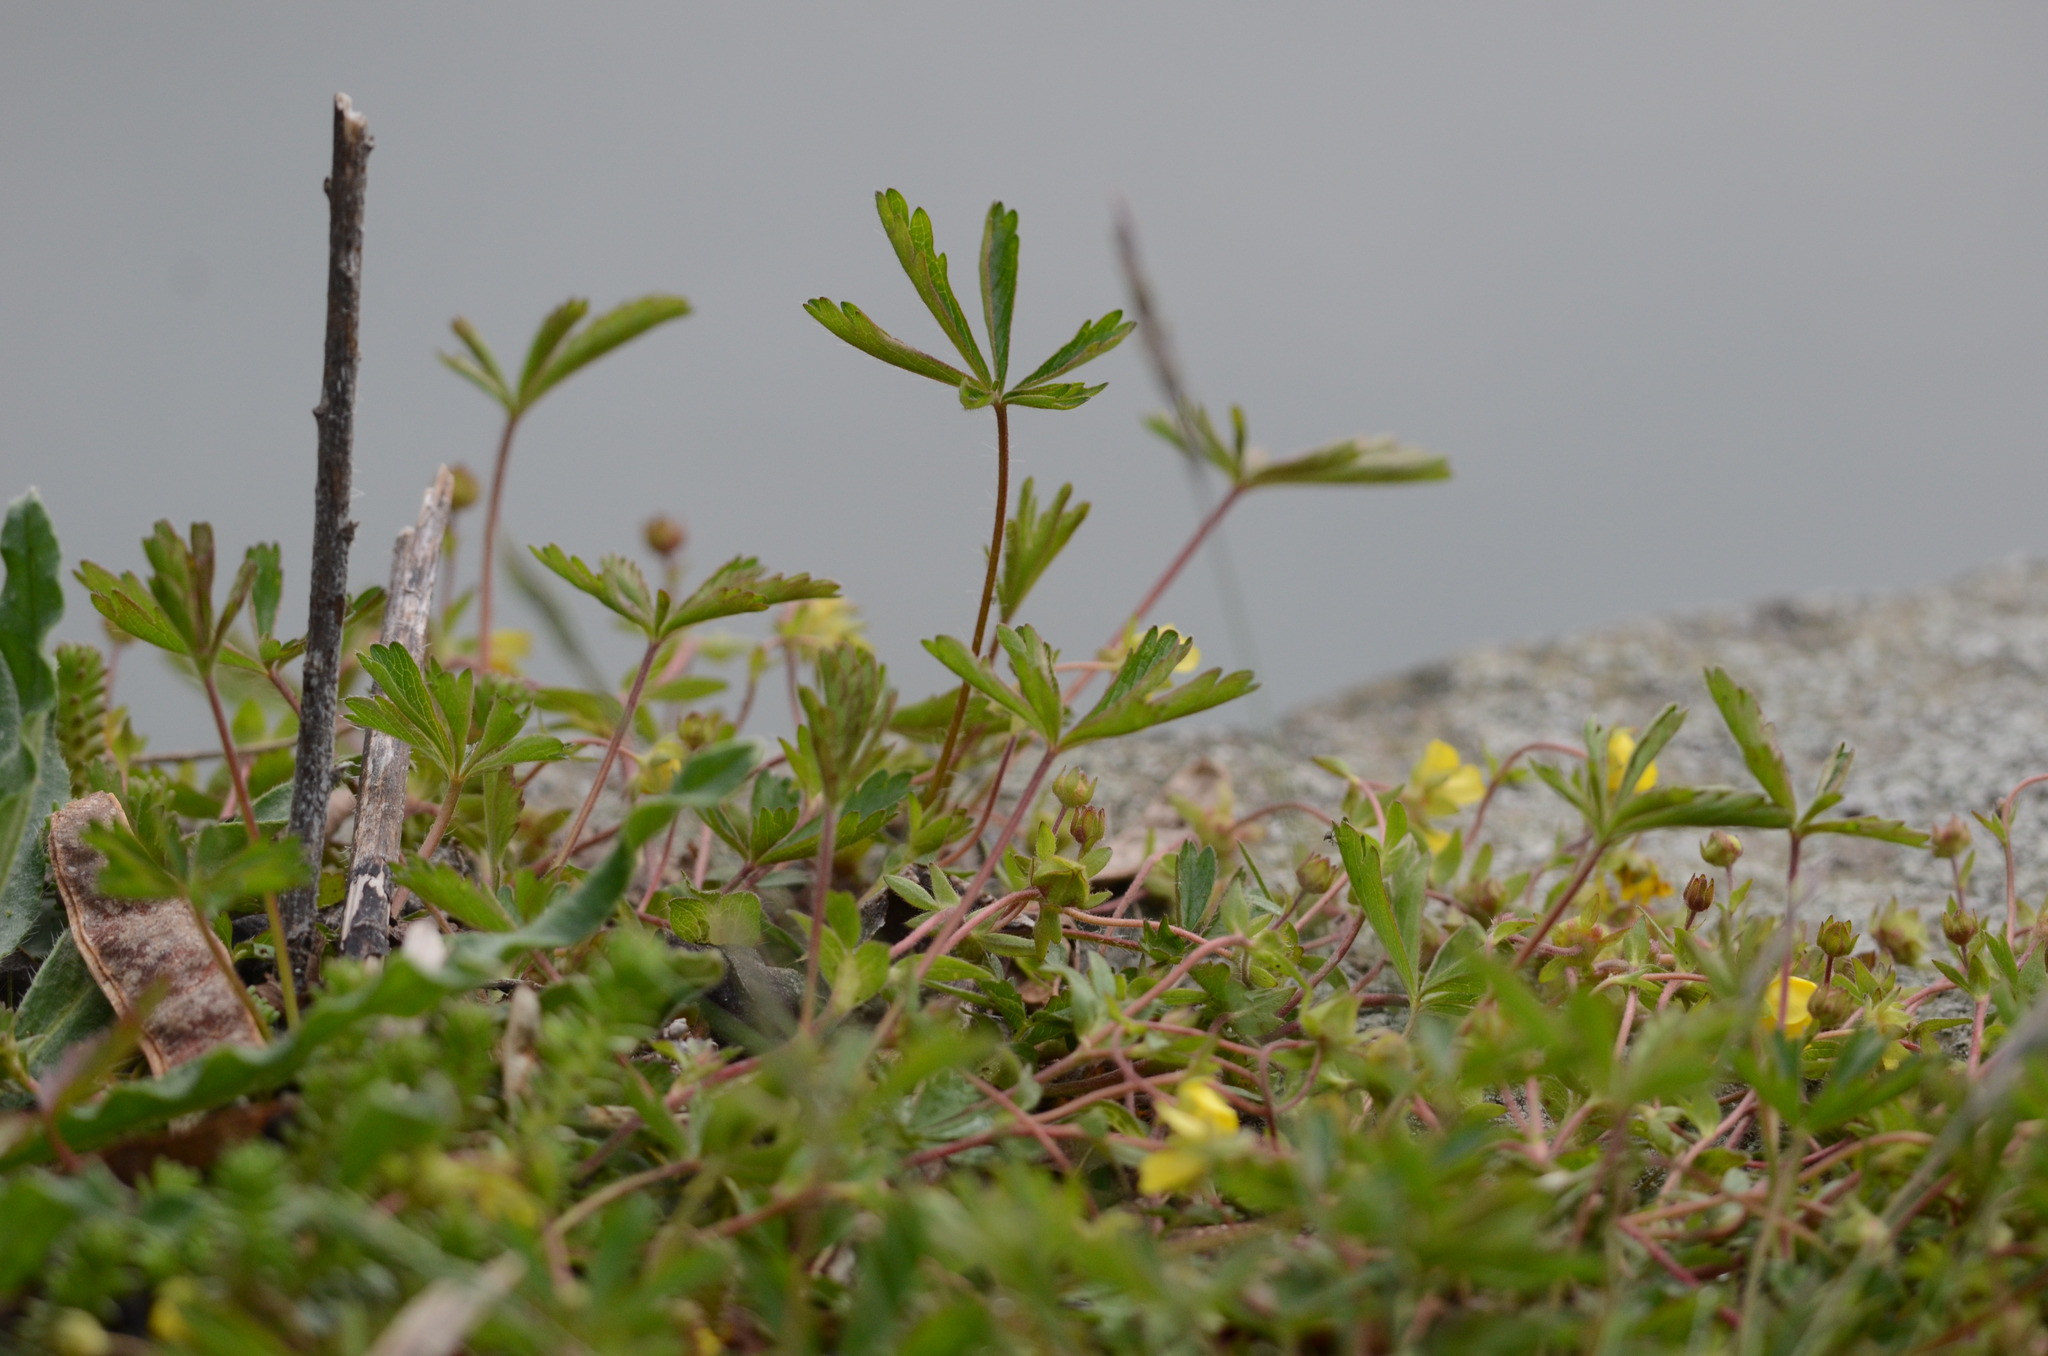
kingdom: Plantae
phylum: Tracheophyta
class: Magnoliopsida
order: Rosales
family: Rosaceae
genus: Potentilla
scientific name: Potentilla heptaphylla
